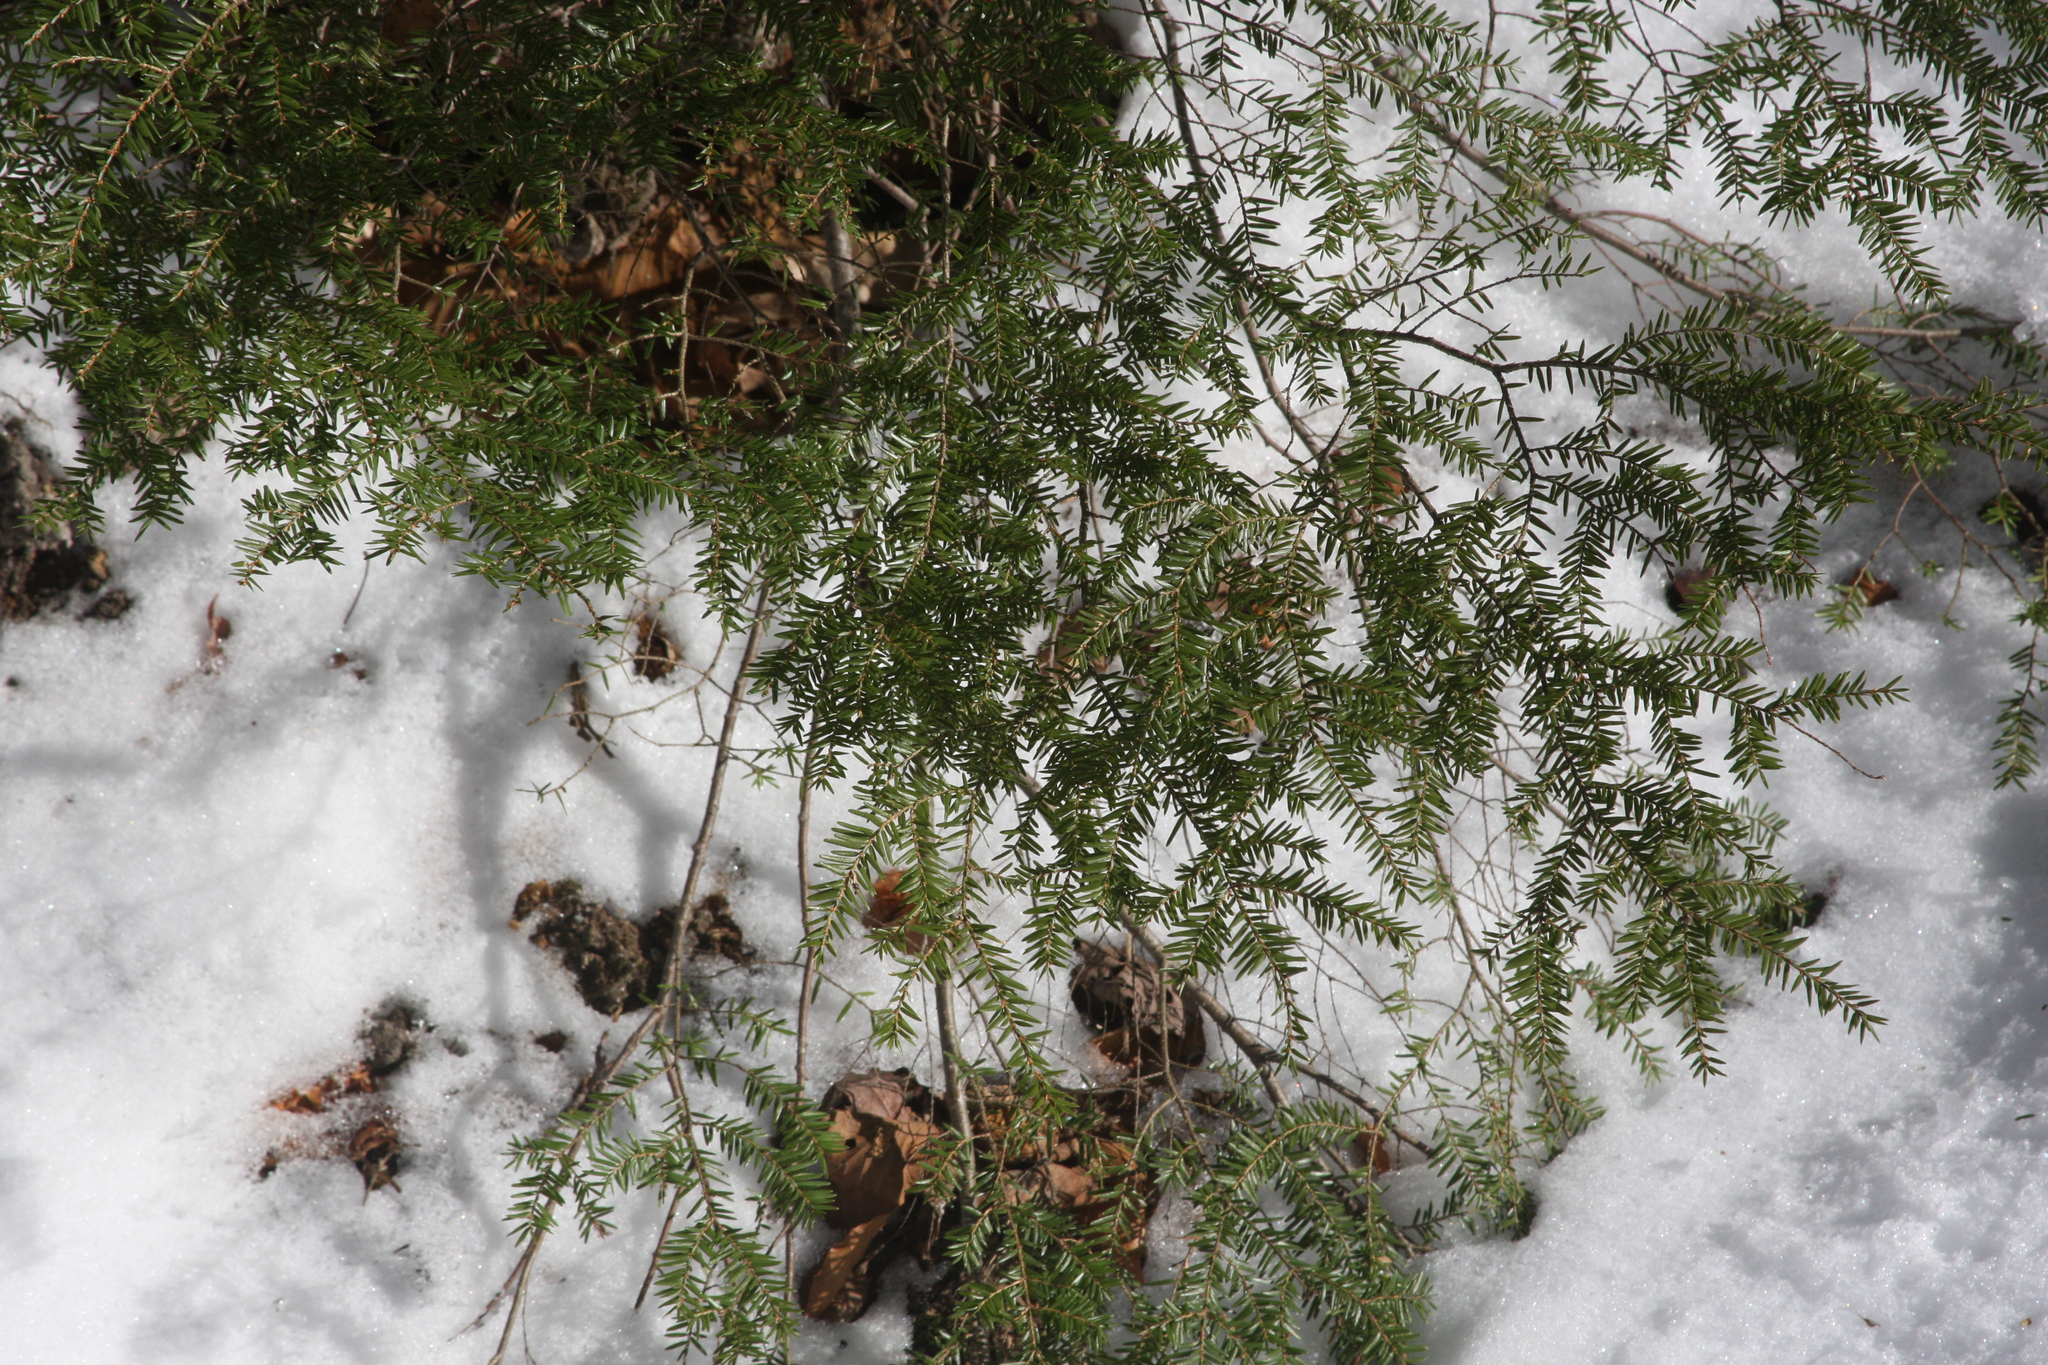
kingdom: Plantae
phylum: Tracheophyta
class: Pinopsida
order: Pinales
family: Pinaceae
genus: Tsuga
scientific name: Tsuga canadensis
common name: Eastern hemlock
